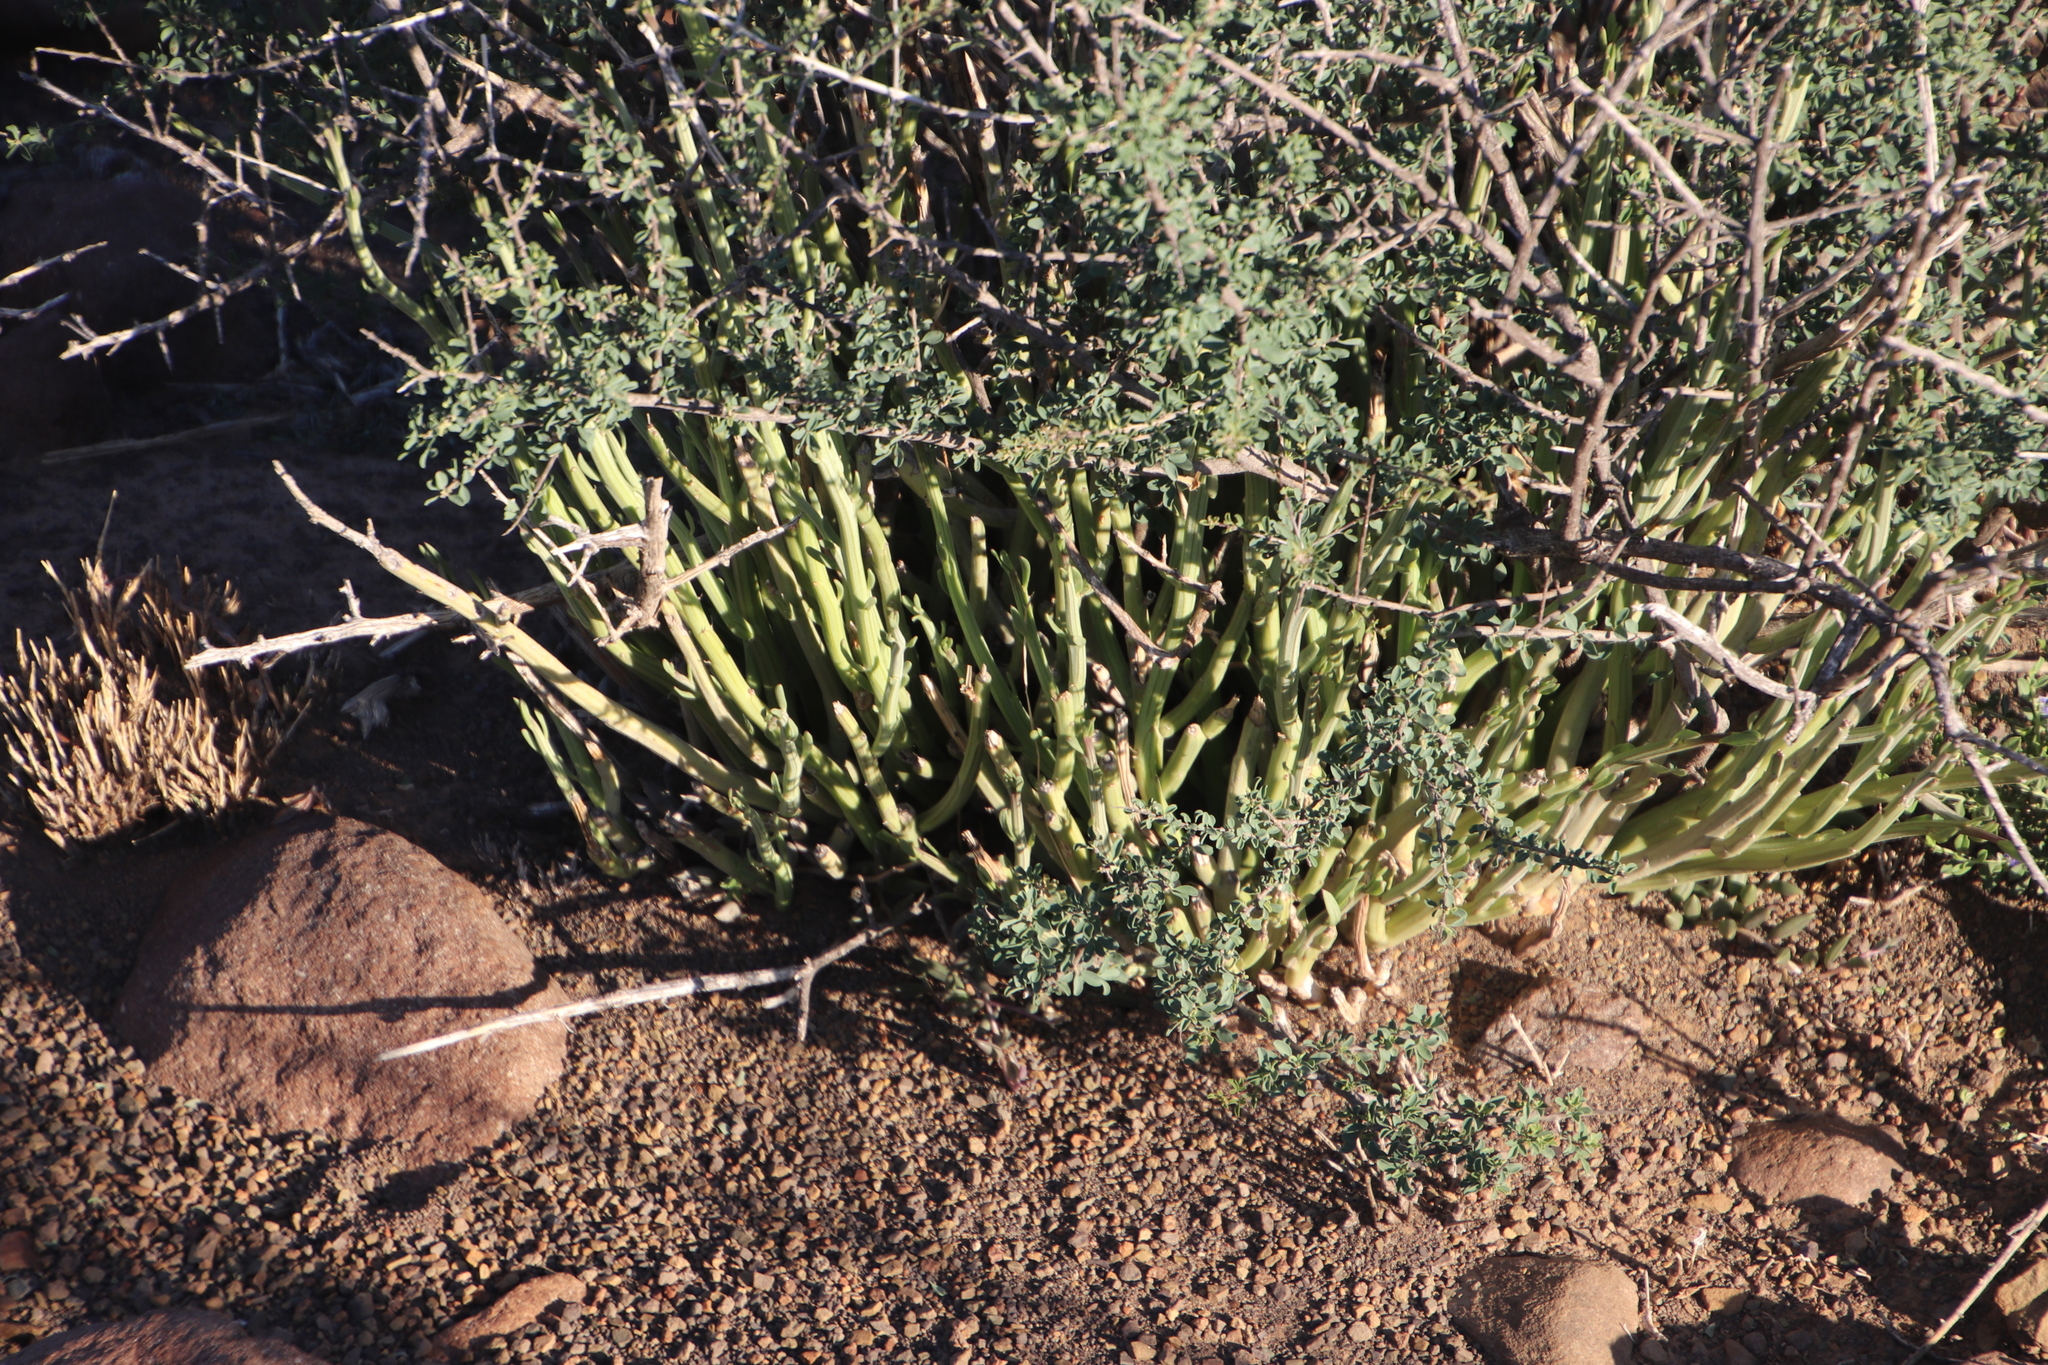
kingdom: Plantae
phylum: Tracheophyta
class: Magnoliopsida
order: Asterales
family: Asteraceae
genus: Curio
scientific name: Curio avasimontanus
